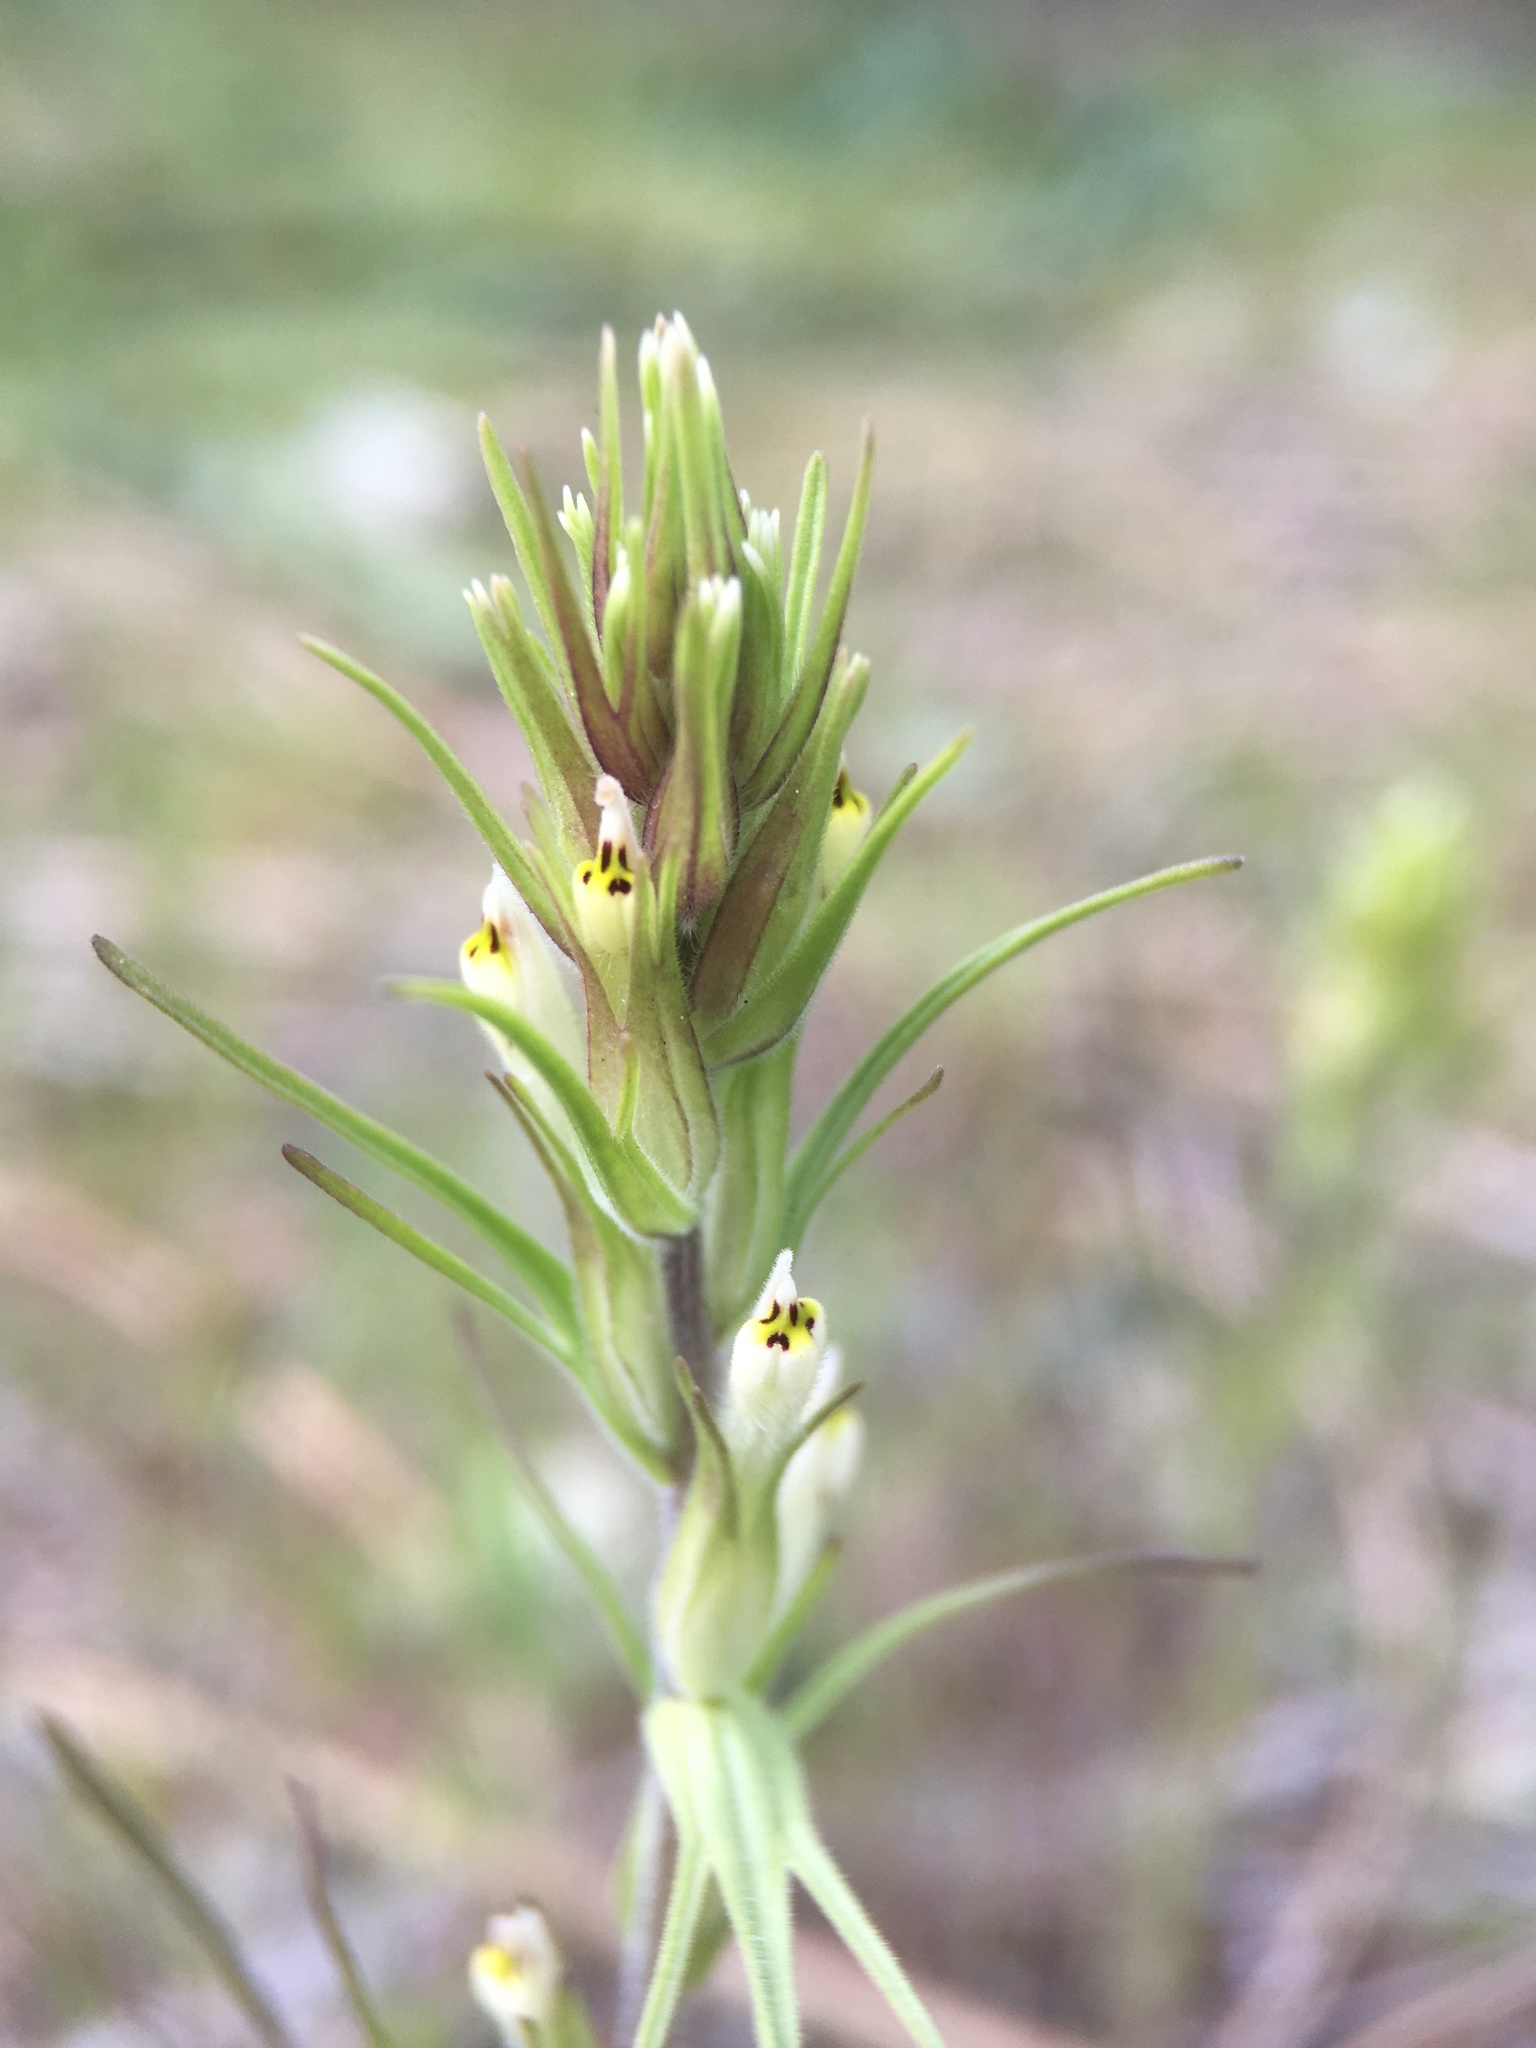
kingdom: Plantae
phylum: Tracheophyta
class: Magnoliopsida
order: Lamiales
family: Orobanchaceae
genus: Castilleja
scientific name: Castilleja attenuata
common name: Valley tassels
